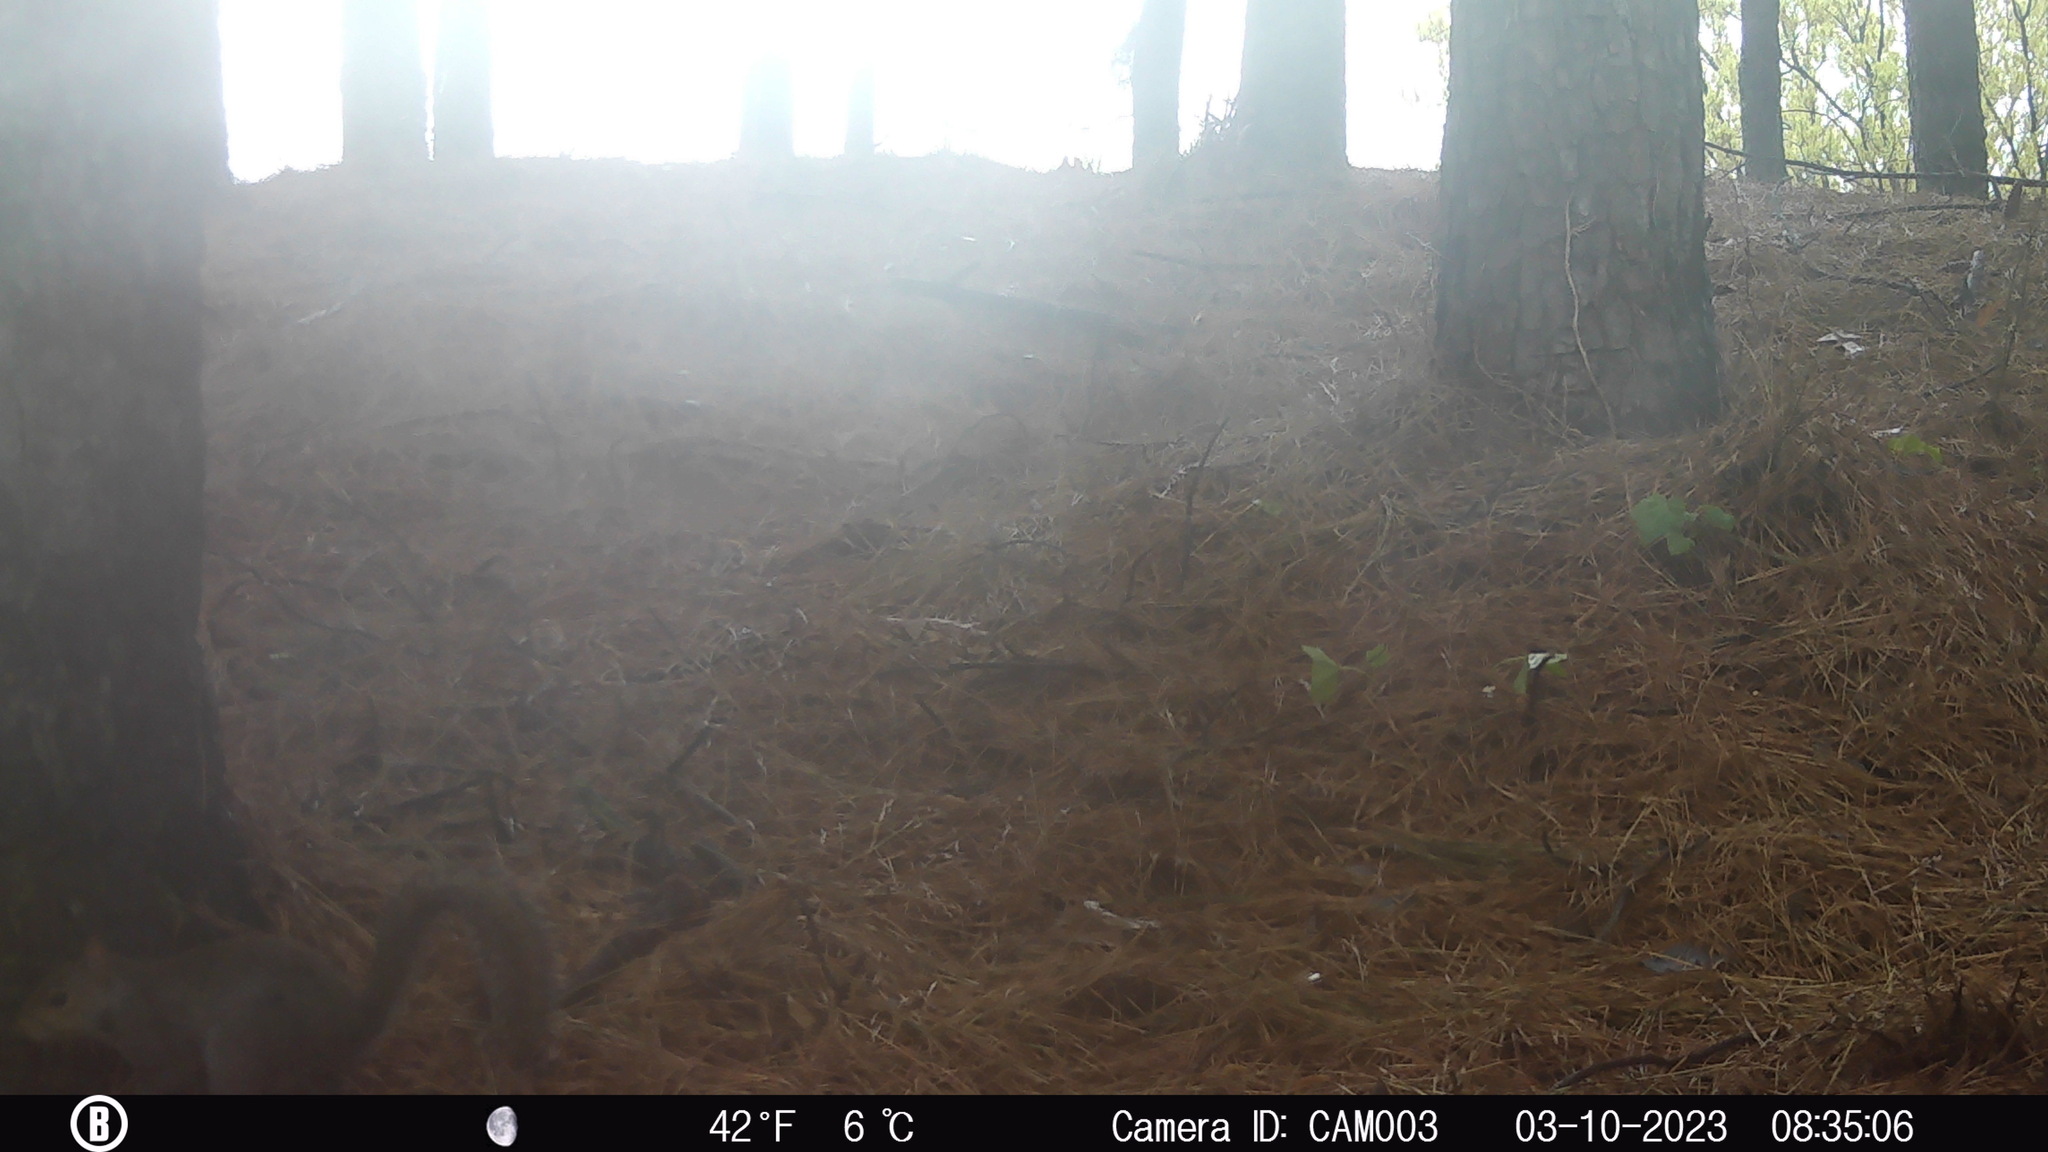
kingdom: Animalia
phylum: Chordata
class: Mammalia
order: Rodentia
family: Sciuridae
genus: Sciurus
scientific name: Sciurus carolinensis
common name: Eastern gray squirrel
